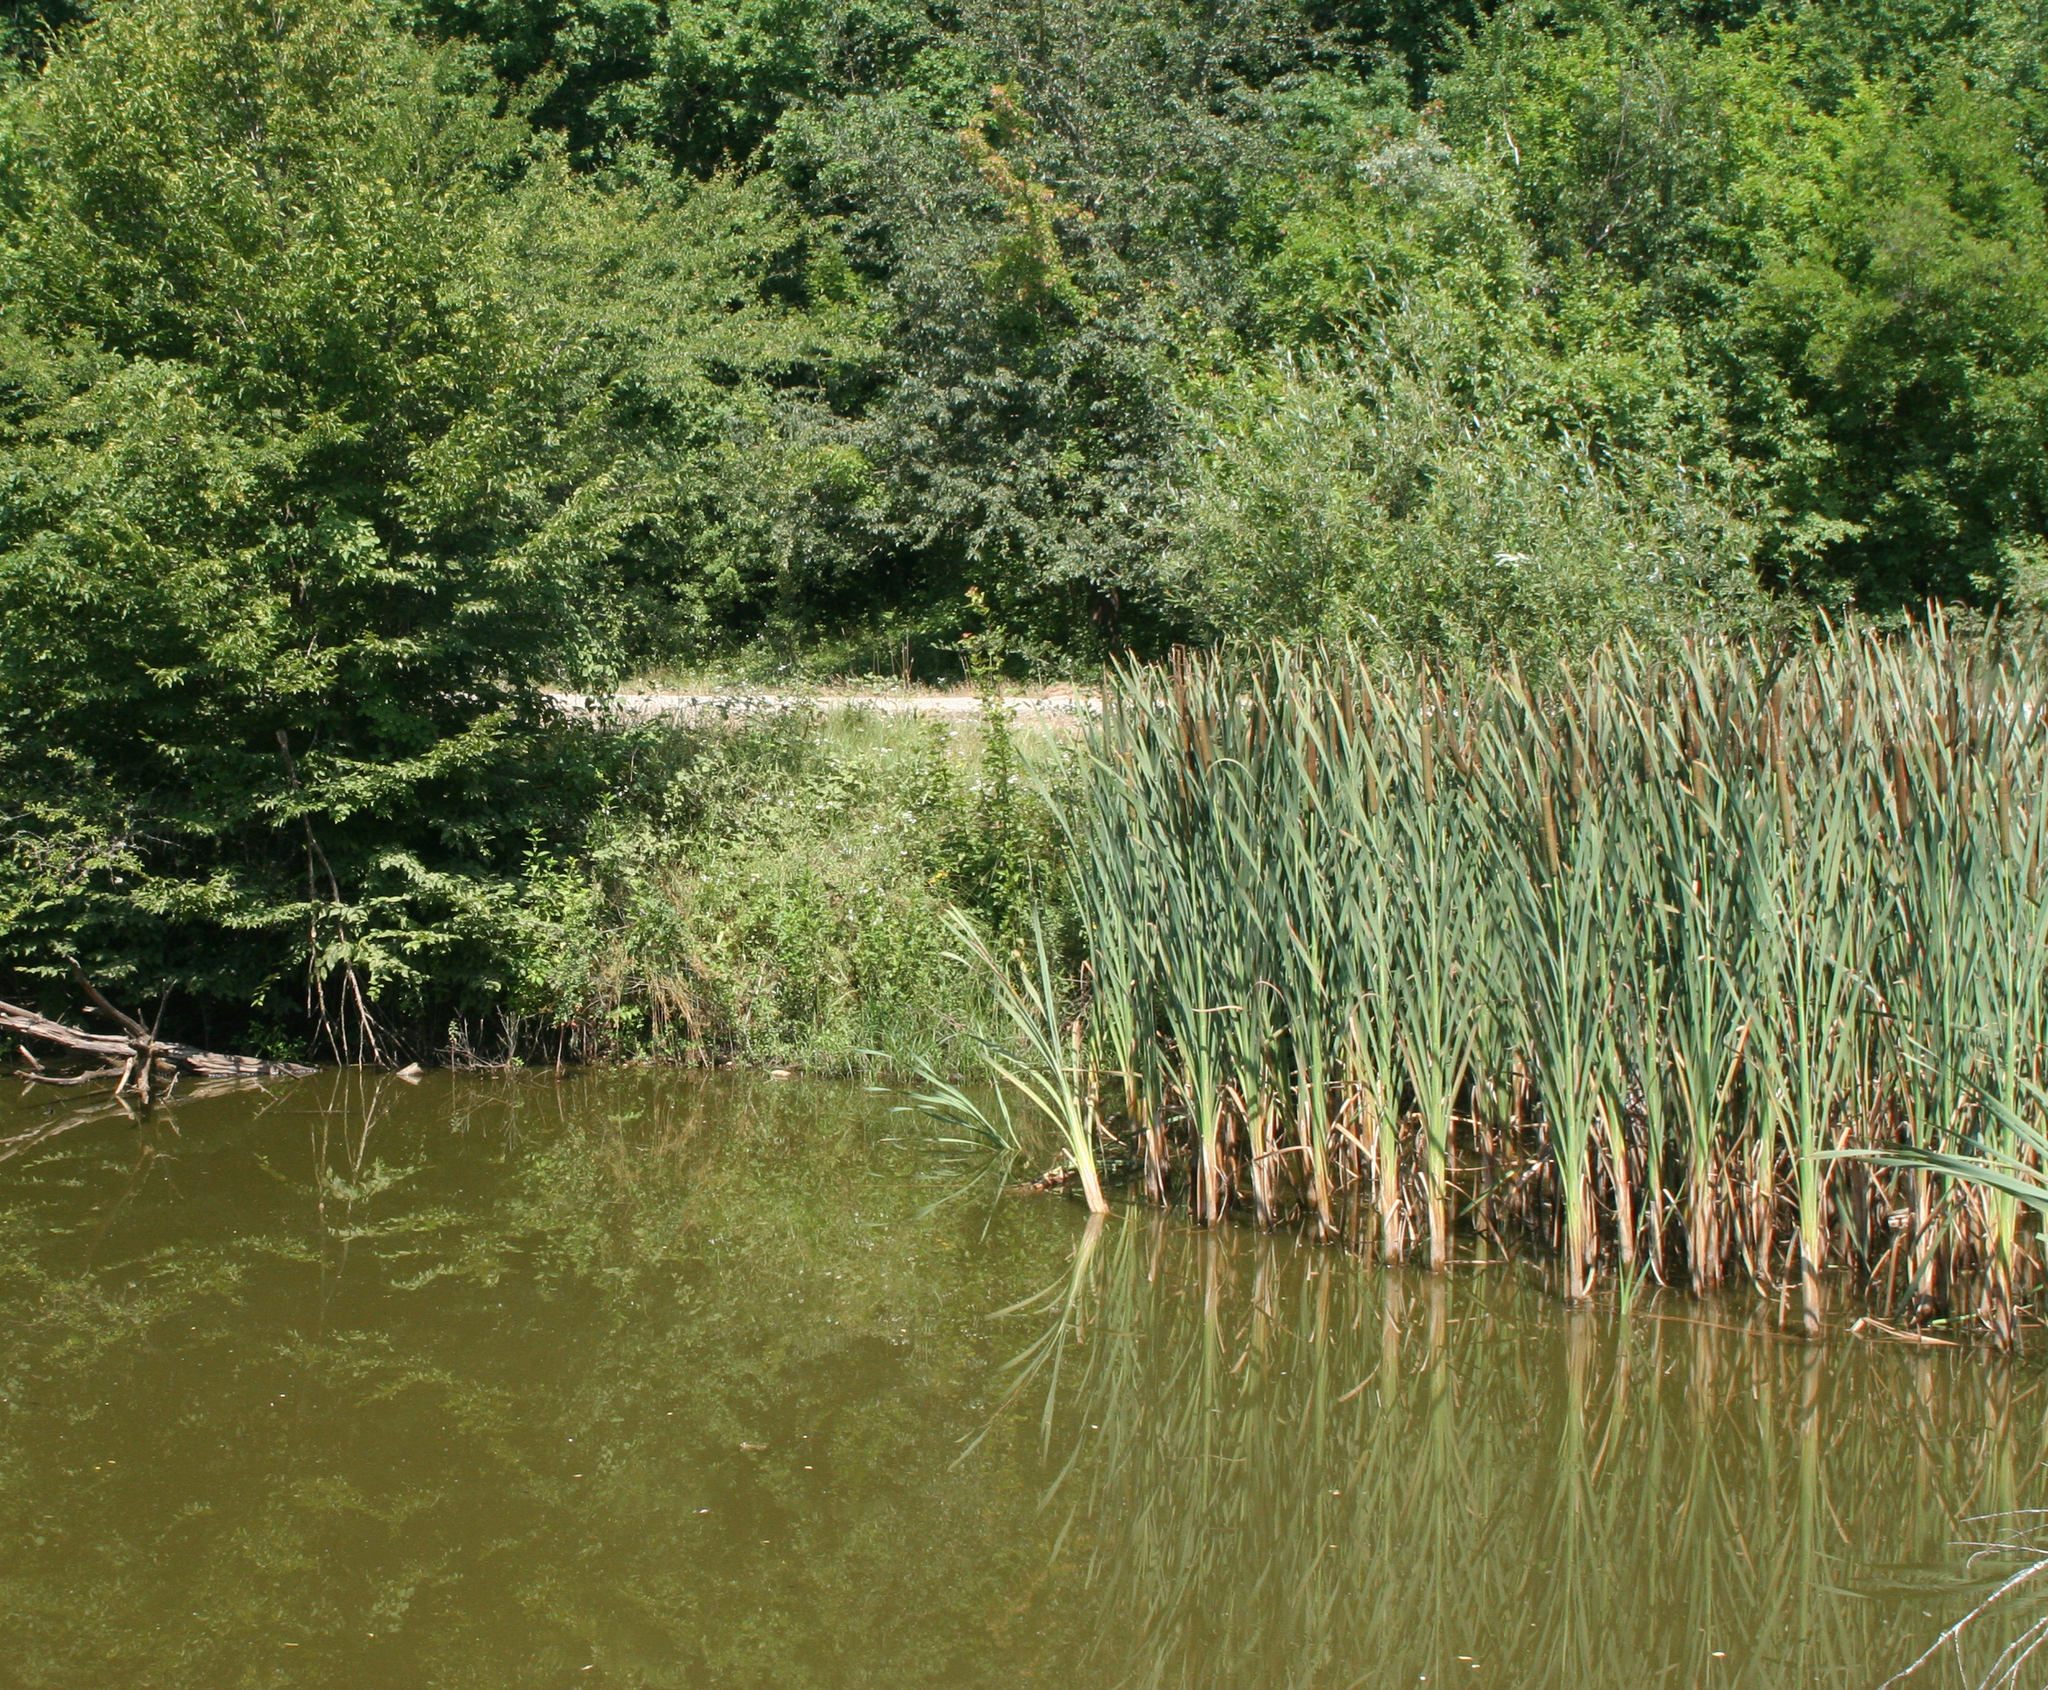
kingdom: Plantae
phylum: Tracheophyta
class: Liliopsida
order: Poales
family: Typhaceae
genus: Typha
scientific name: Typha latifolia
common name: Broadleaf cattail
